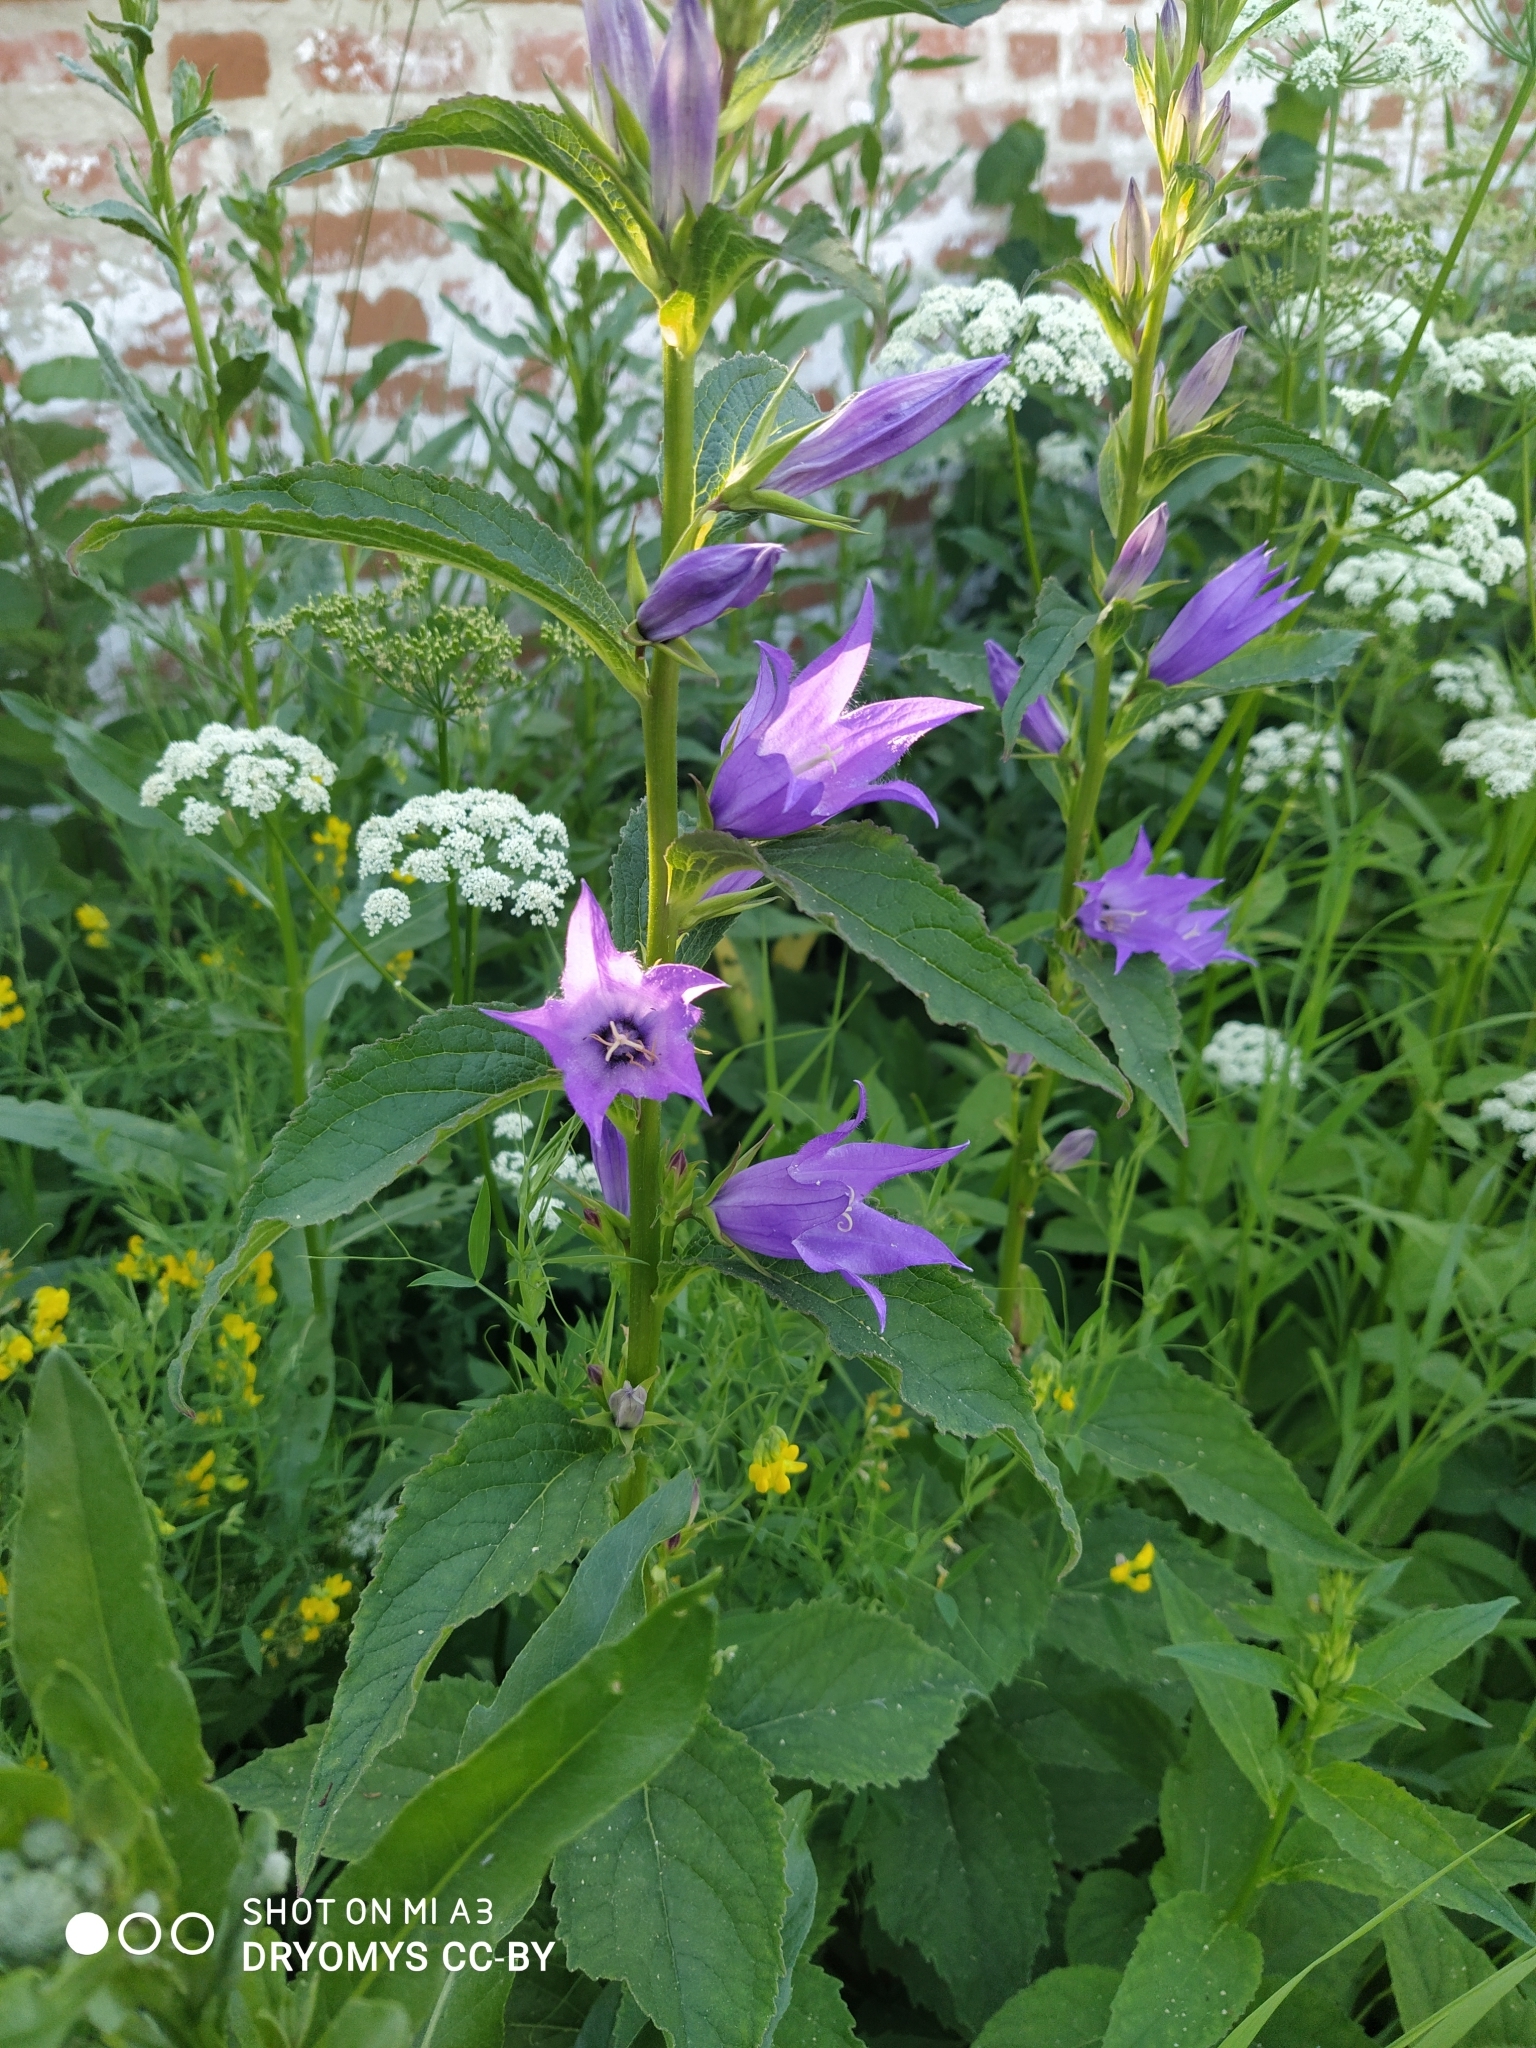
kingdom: Plantae
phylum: Tracheophyta
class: Magnoliopsida
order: Asterales
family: Campanulaceae
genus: Campanula
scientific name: Campanula latifolia
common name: Giant bellflower
